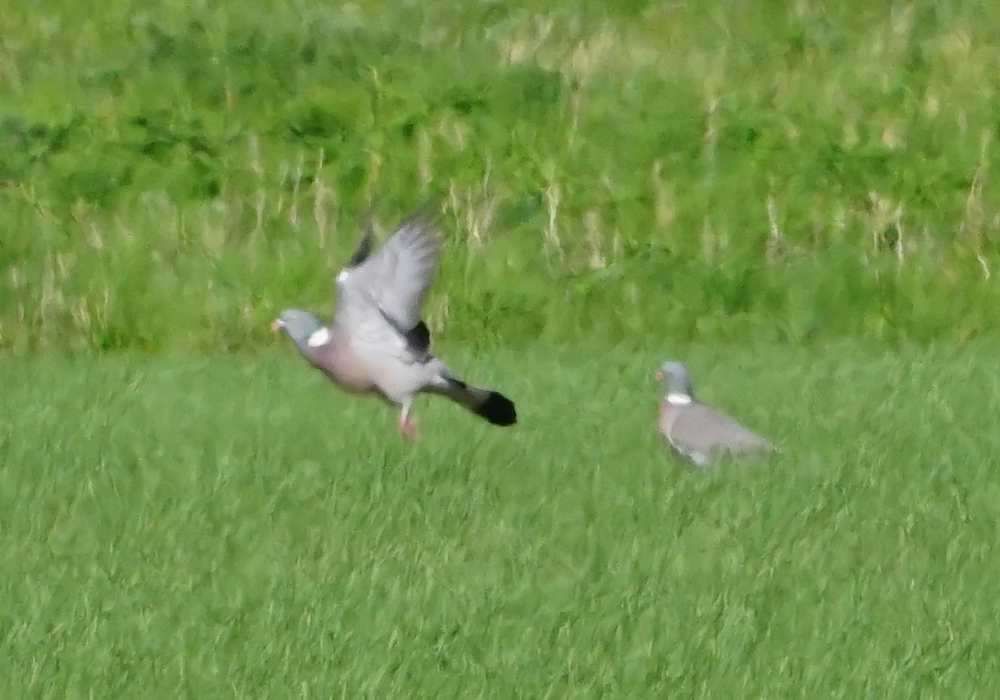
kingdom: Animalia
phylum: Chordata
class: Aves
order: Columbiformes
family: Columbidae
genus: Columba
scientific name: Columba palumbus
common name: Common wood pigeon
